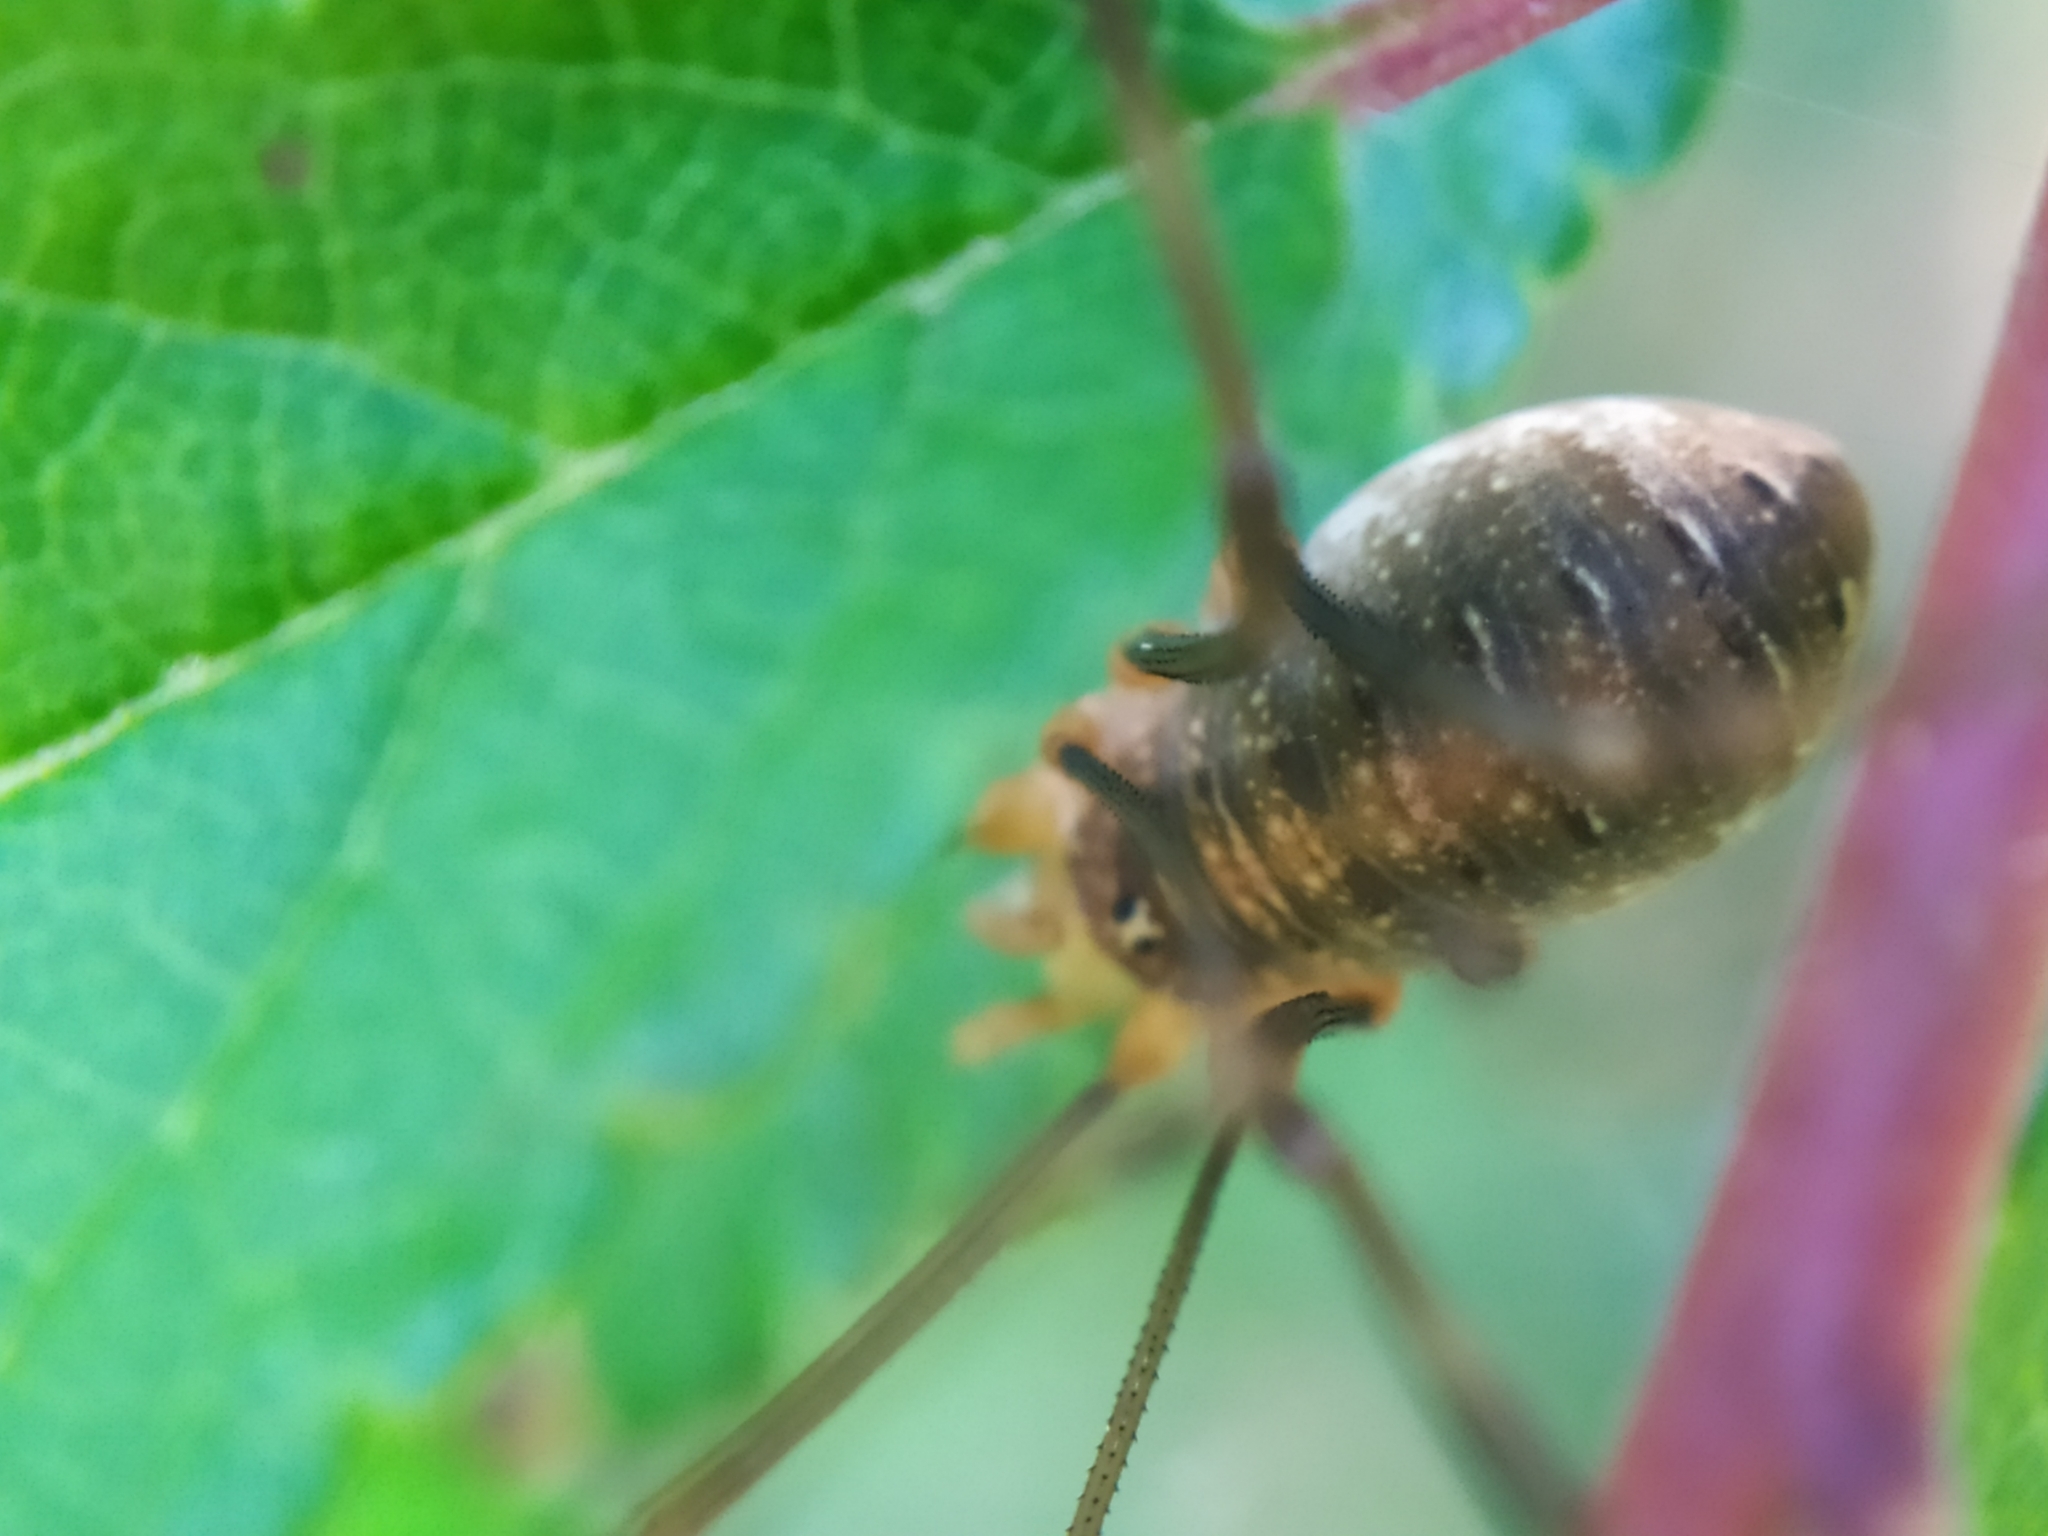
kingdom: Animalia
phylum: Arthropoda
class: Arachnida
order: Opiliones
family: Phalangiidae
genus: Opilio
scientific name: Opilio canestrinii
